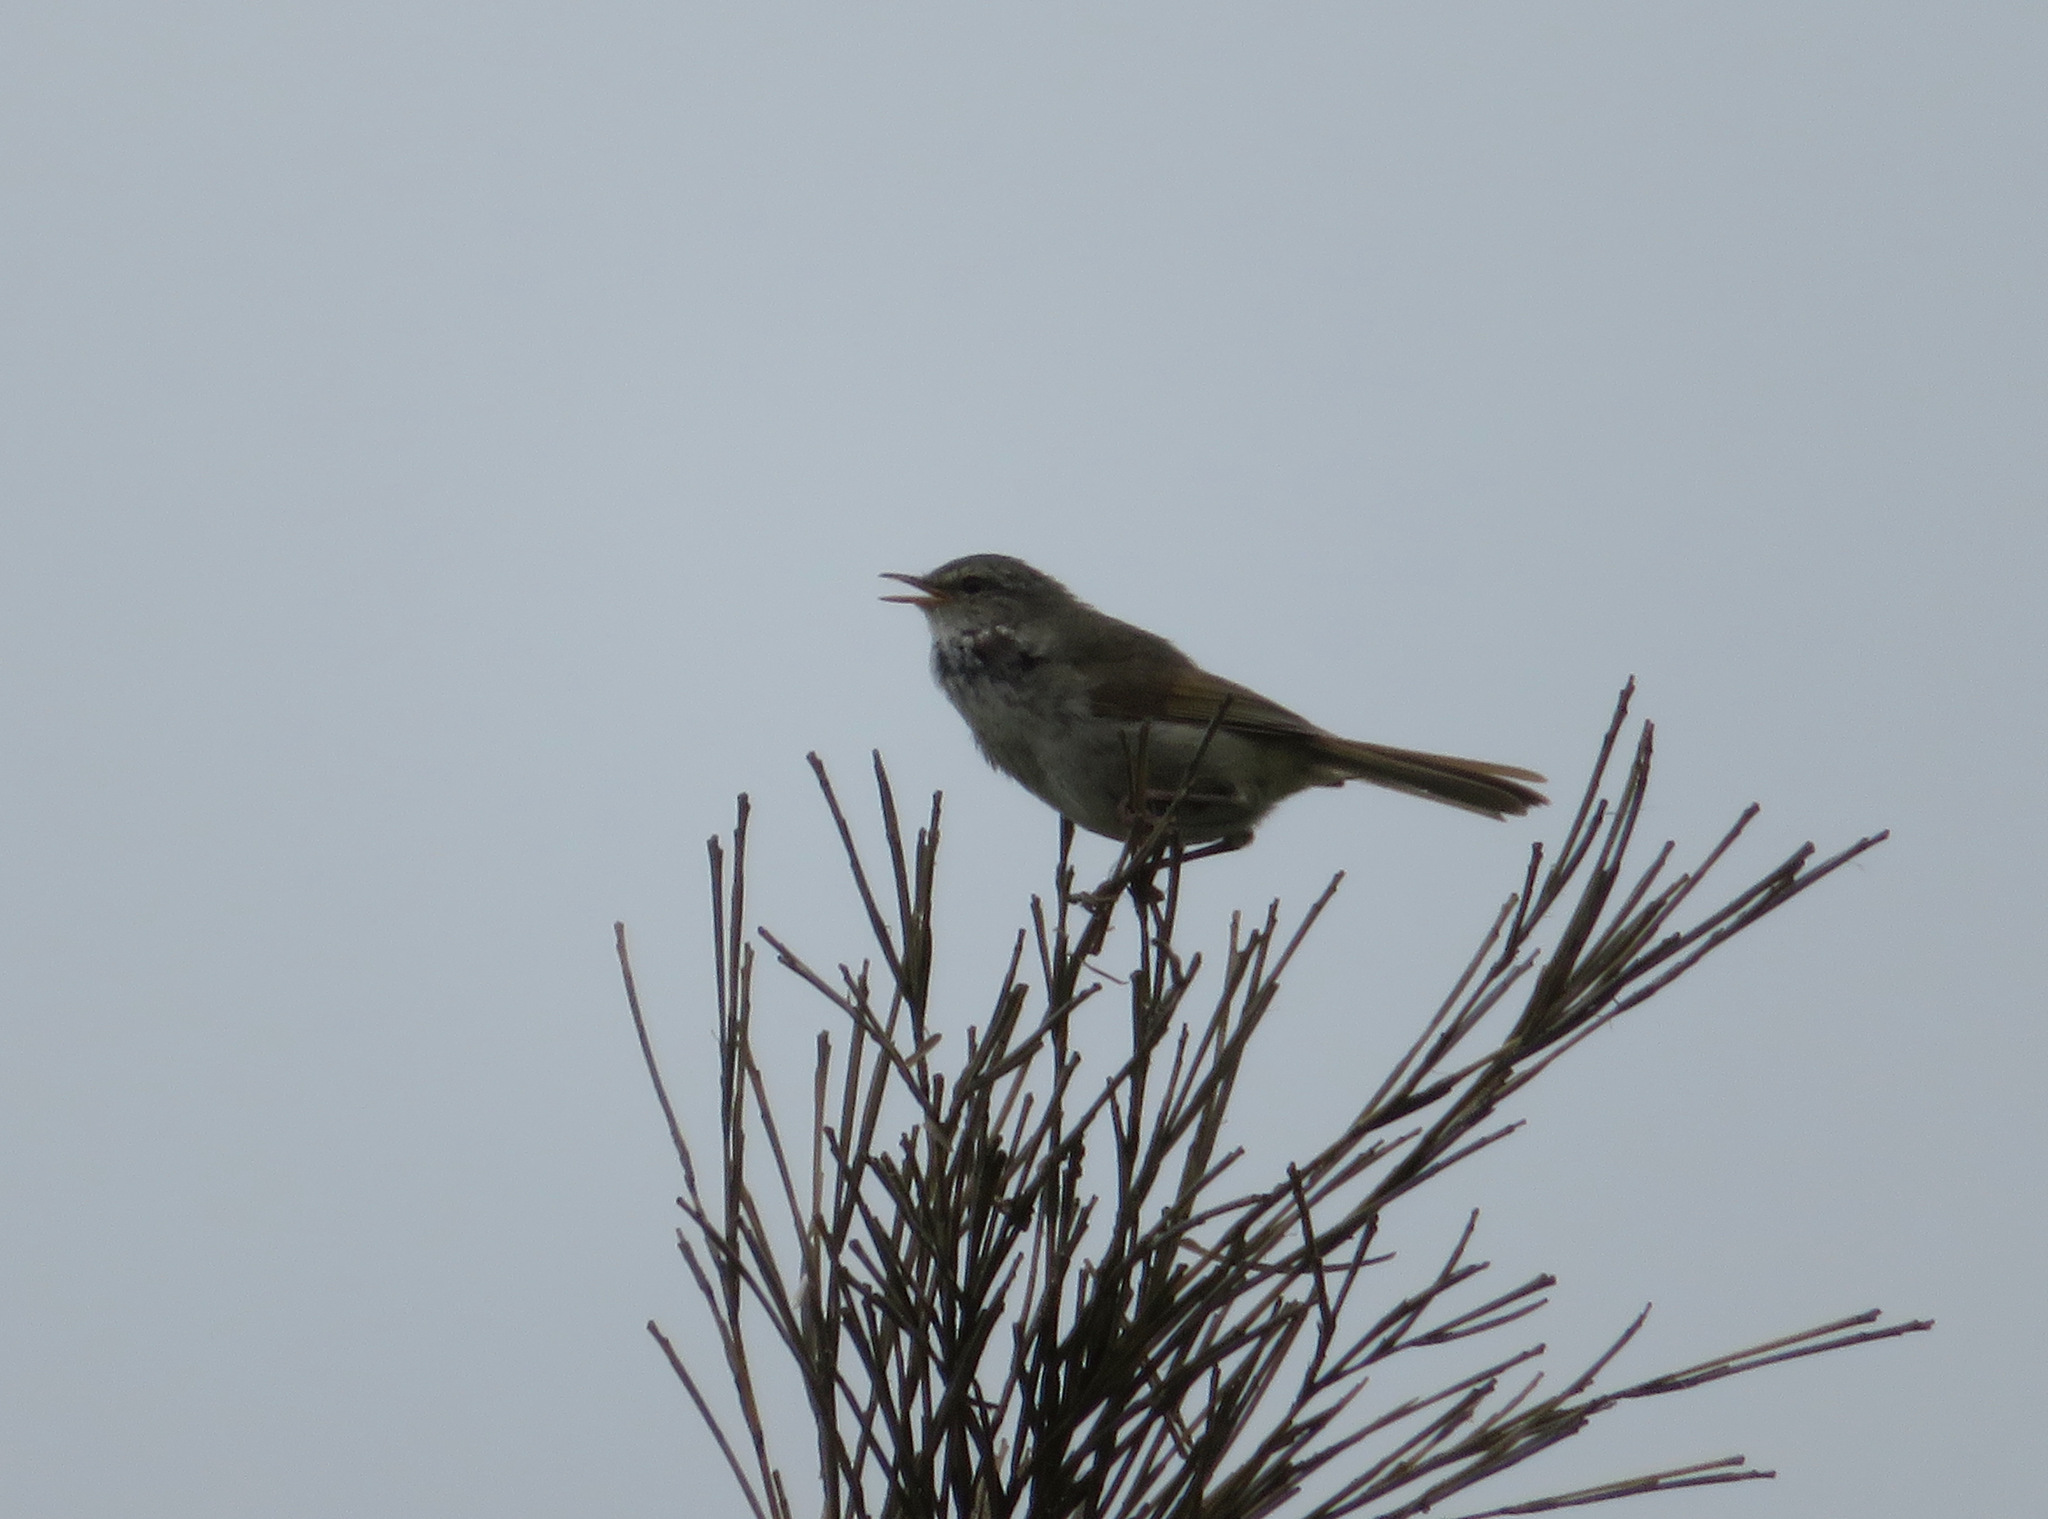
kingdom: Animalia
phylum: Chordata
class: Aves
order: Passeriformes
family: Cettiidae
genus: Horornis
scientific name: Horornis diphone
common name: Japanese bush warbler
